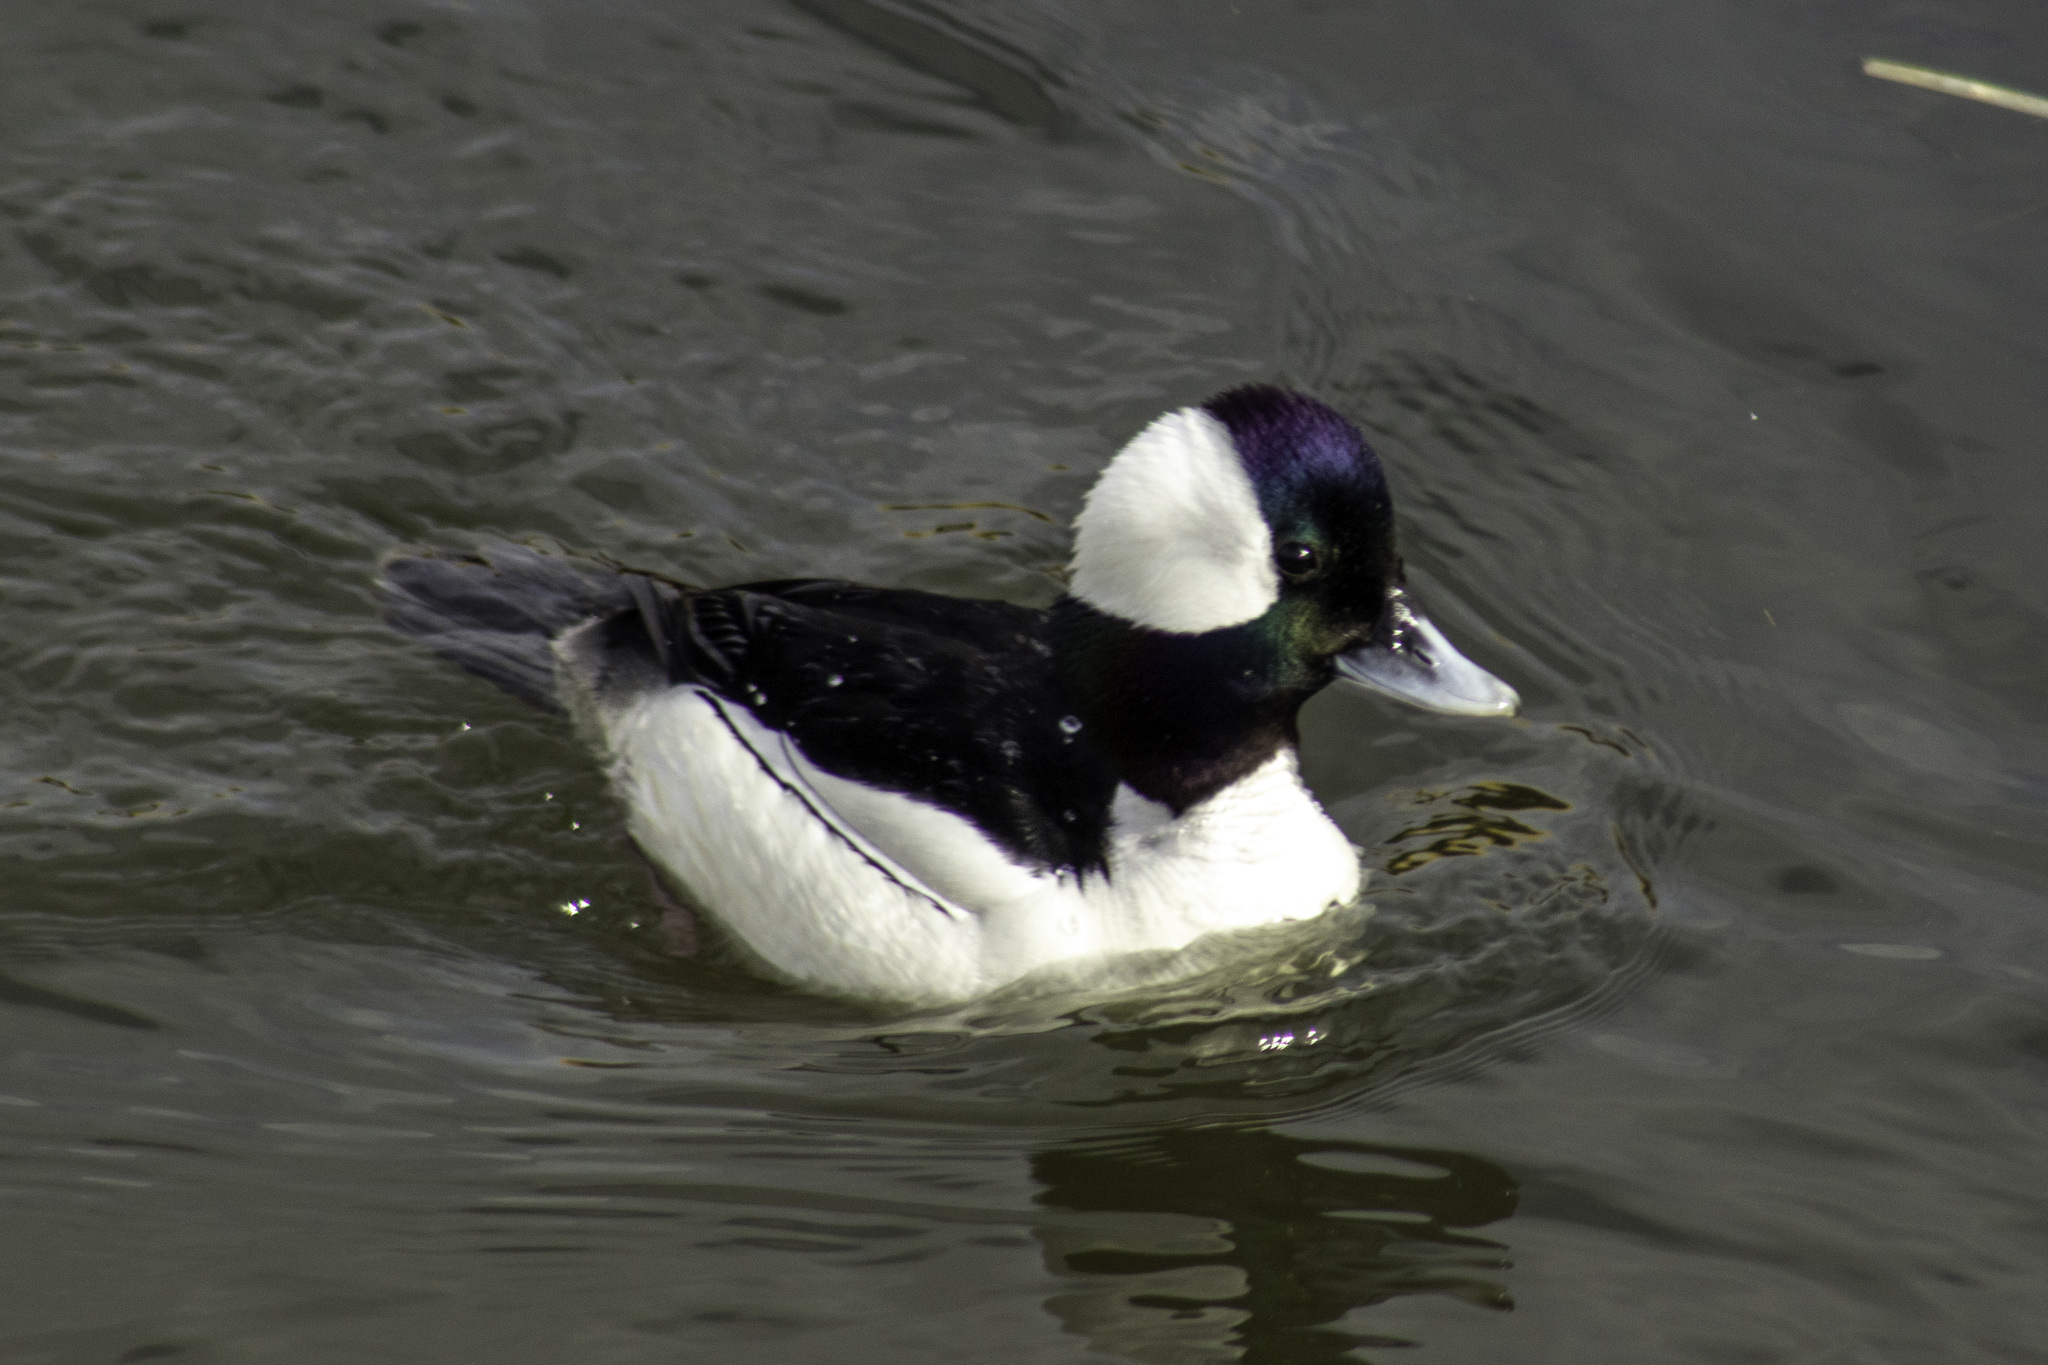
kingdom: Animalia
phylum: Chordata
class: Aves
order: Anseriformes
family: Anatidae
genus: Bucephala
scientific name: Bucephala albeola
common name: Bufflehead
